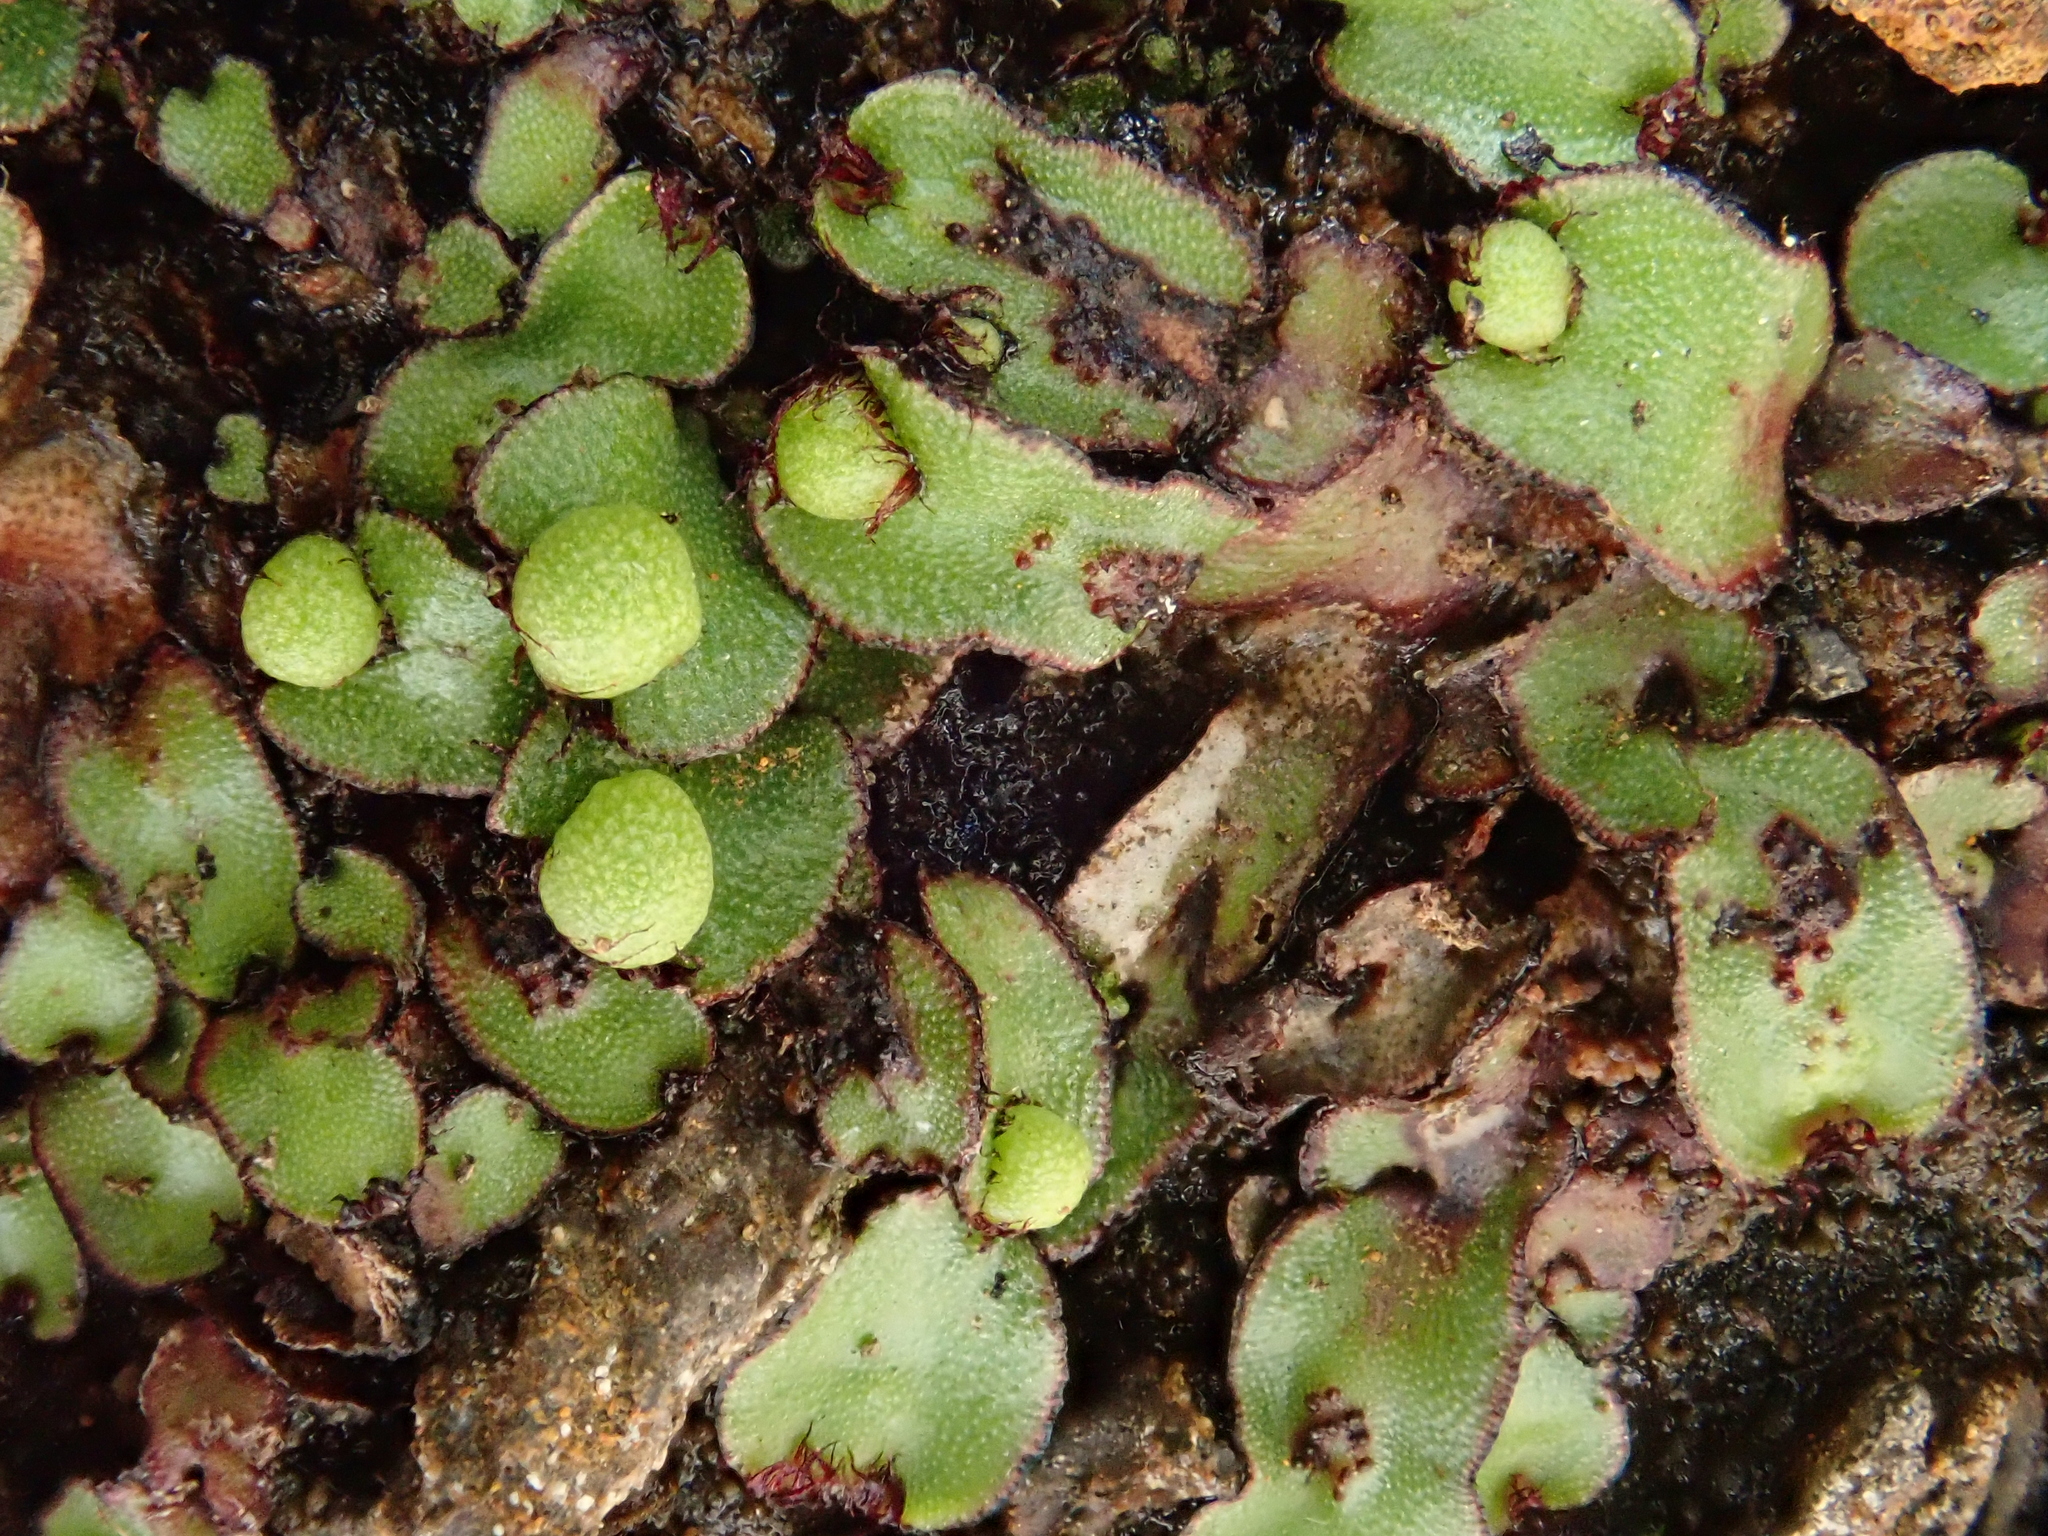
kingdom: Plantae
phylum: Marchantiophyta
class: Marchantiopsida
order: Marchantiales
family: Aytoniaceae
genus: Mannia
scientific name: Mannia androgyna
